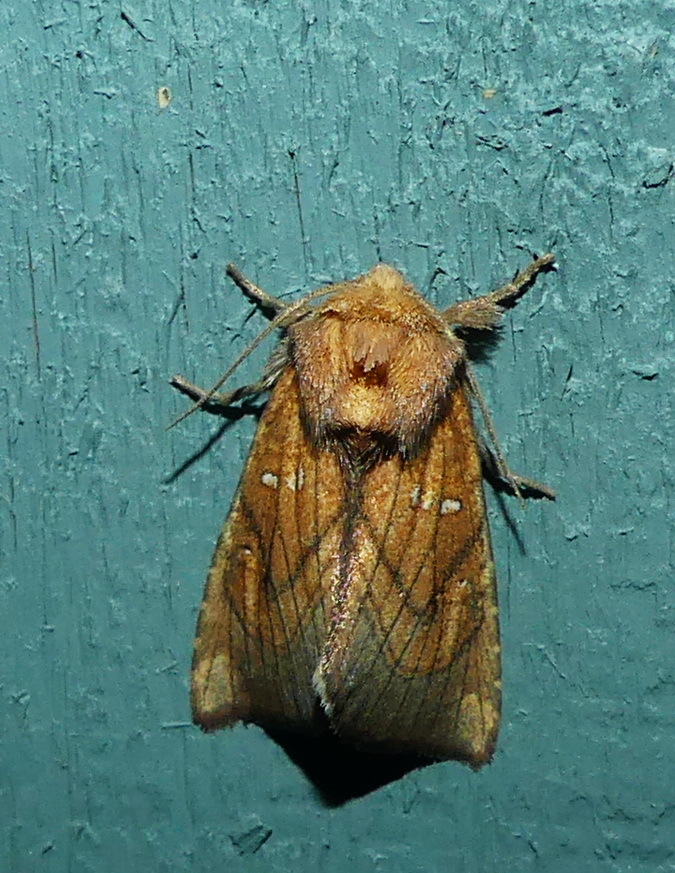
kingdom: Animalia
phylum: Arthropoda
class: Insecta
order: Lepidoptera
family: Noctuidae
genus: Papaipema
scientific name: Papaipema inquaesita
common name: Sensitive fern borer moth
